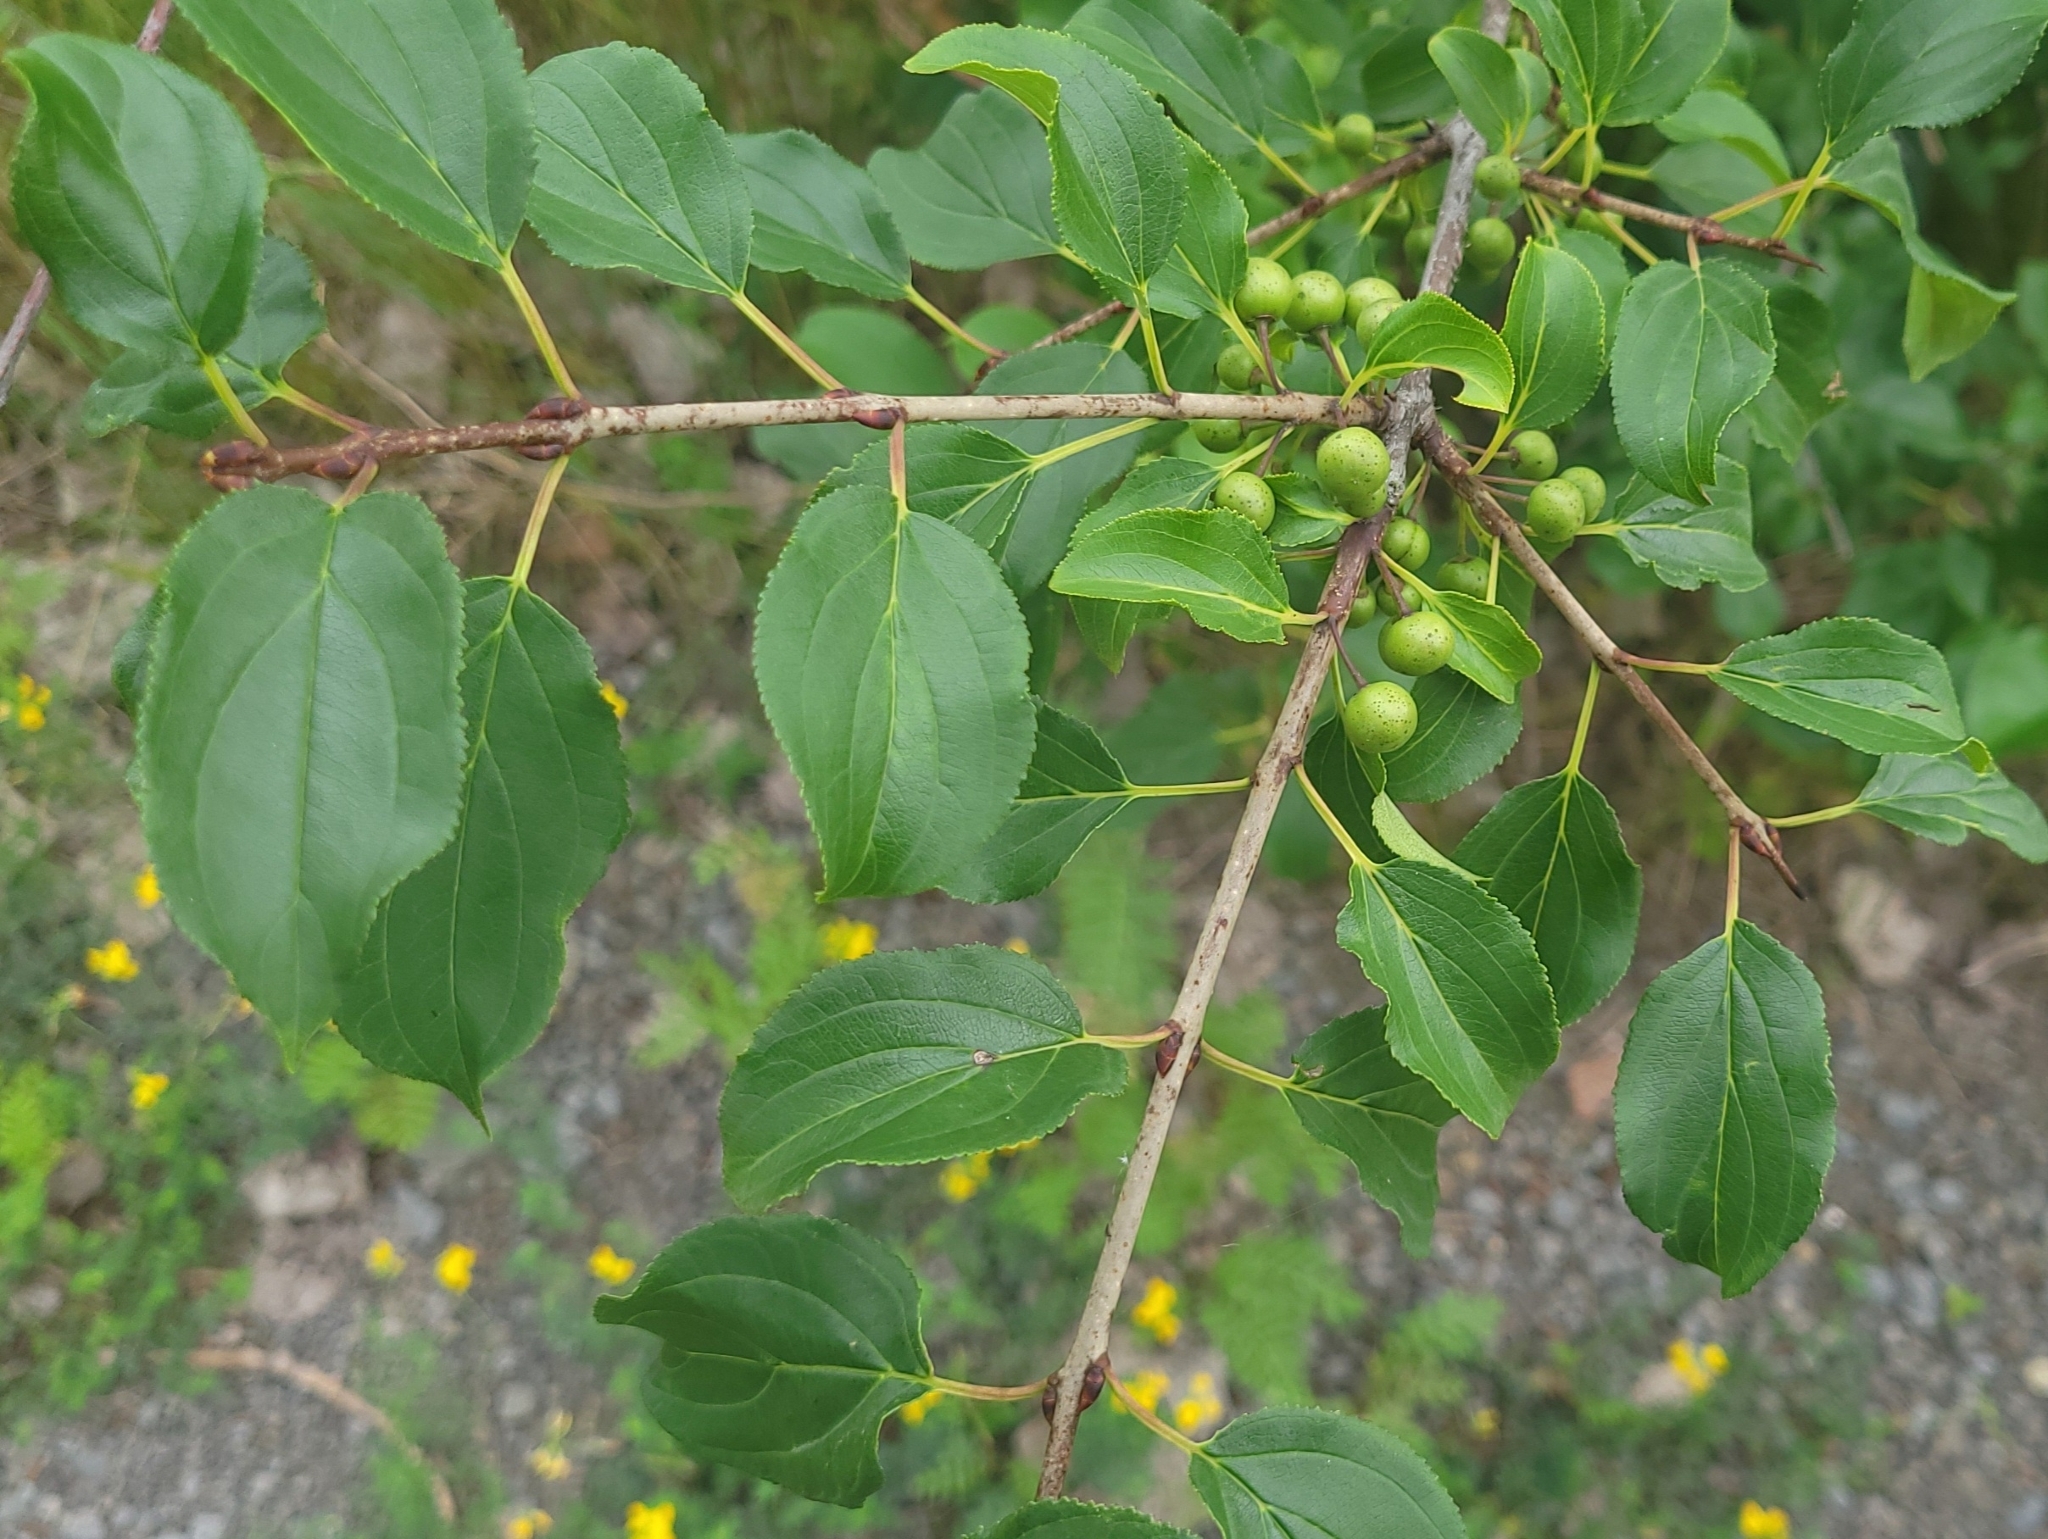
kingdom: Plantae
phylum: Tracheophyta
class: Magnoliopsida
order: Rosales
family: Rhamnaceae
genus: Rhamnus
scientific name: Rhamnus cathartica
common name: Common buckthorn
